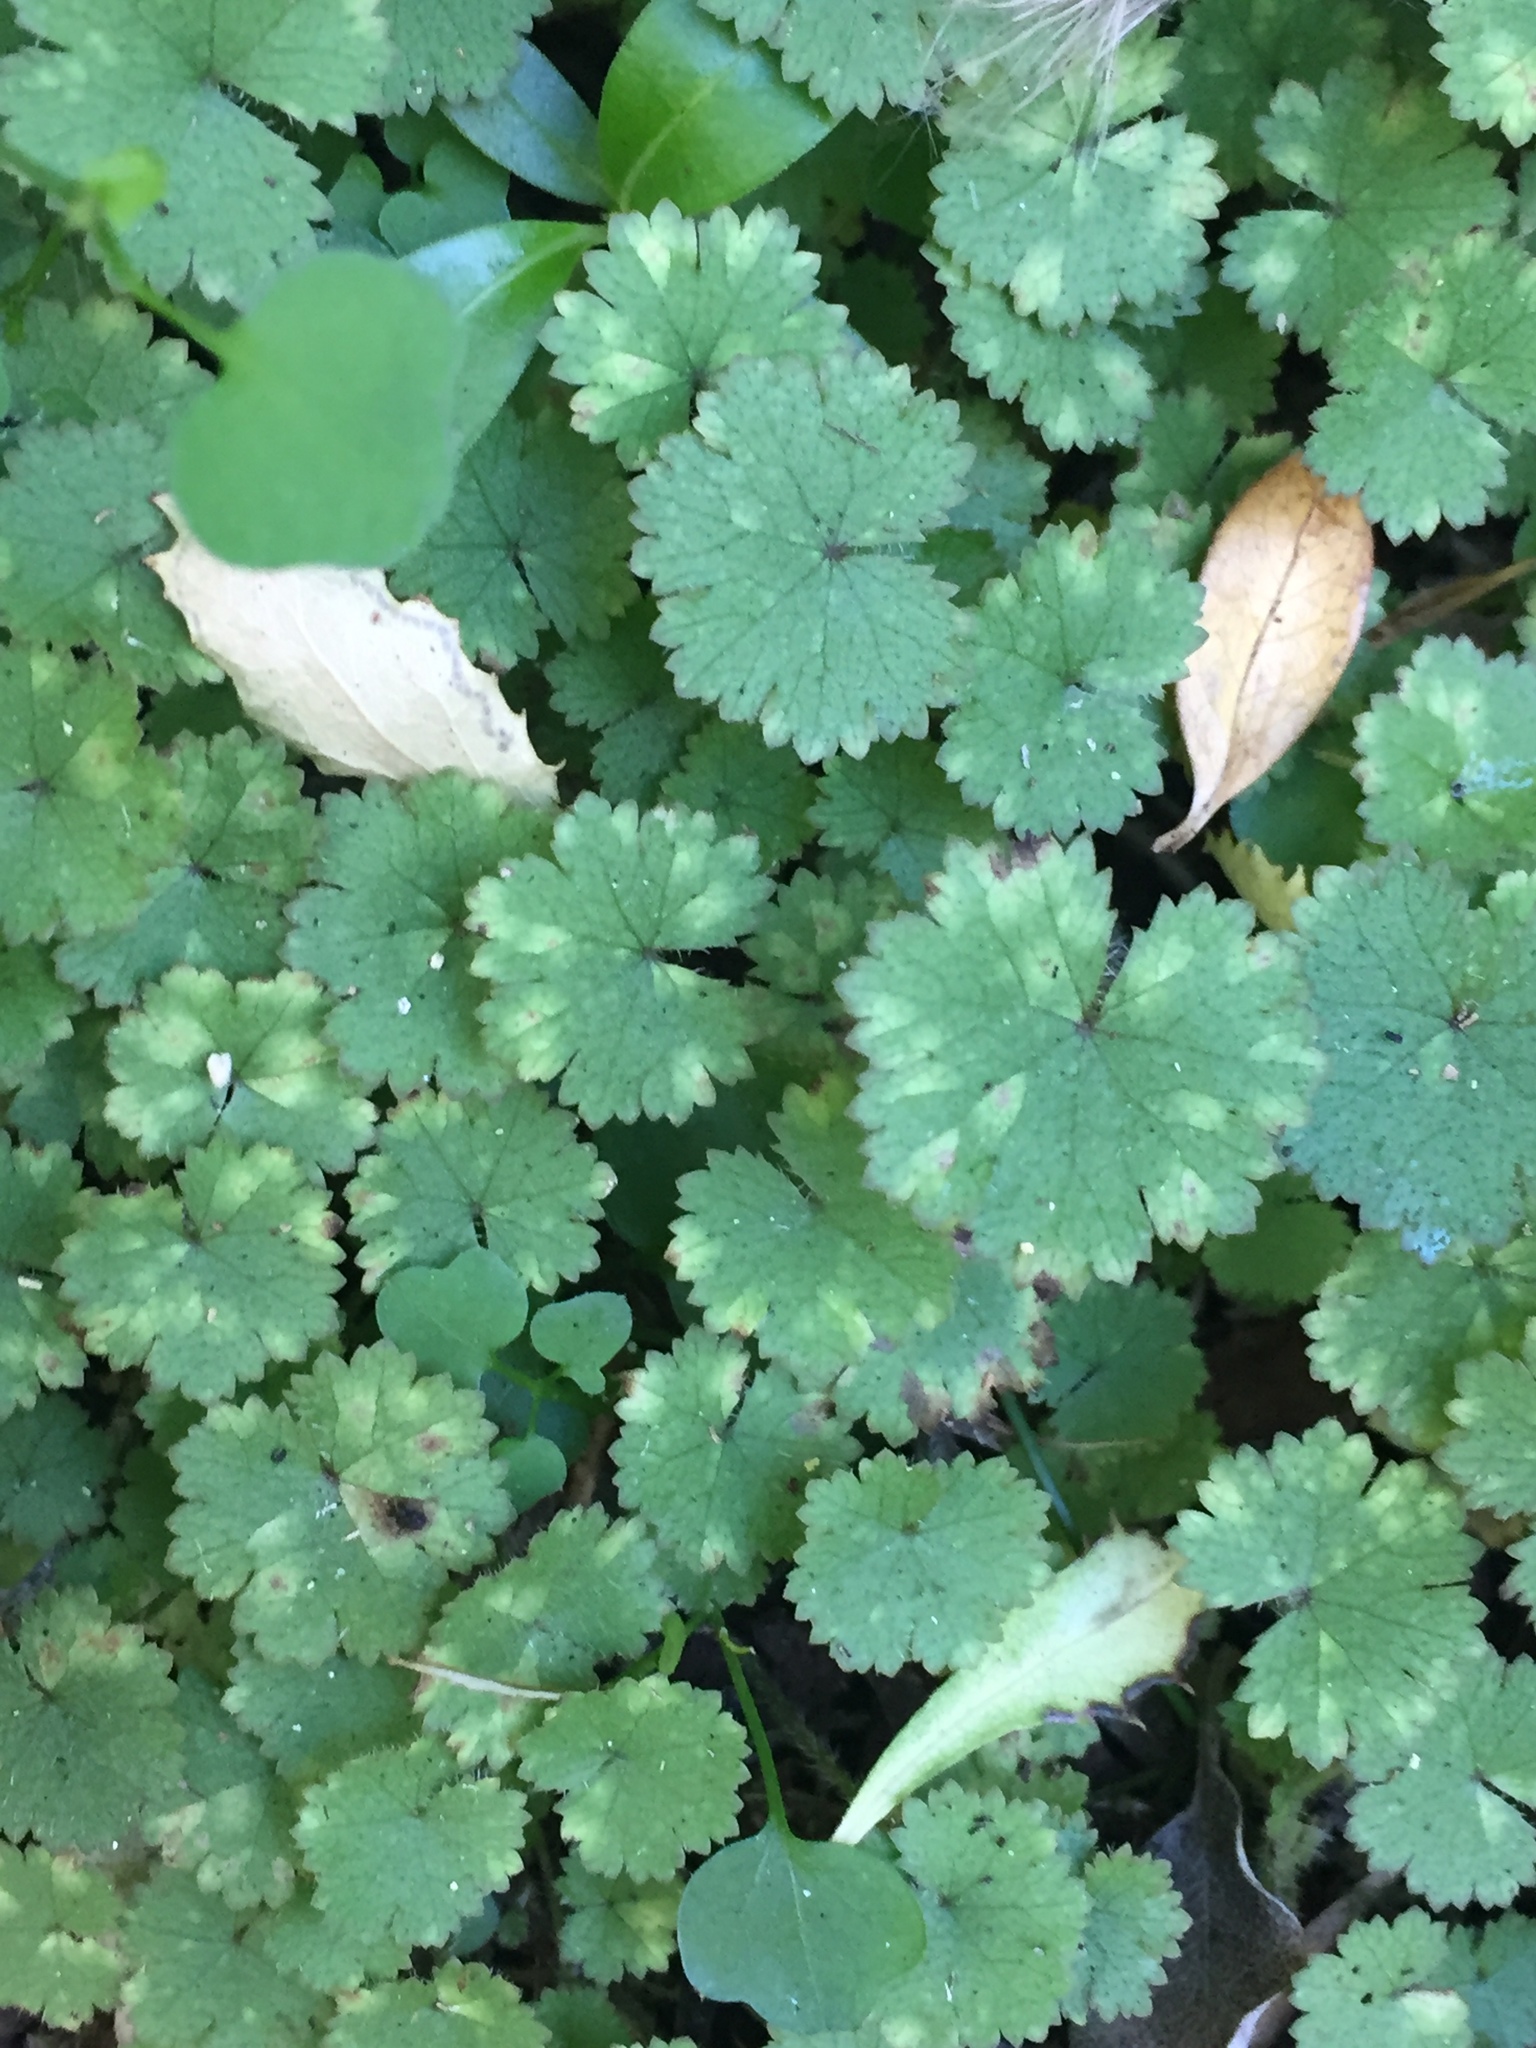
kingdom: Plantae
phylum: Tracheophyta
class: Magnoliopsida
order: Apiales
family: Araliaceae
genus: Hydrocotyle
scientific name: Hydrocotyle moschata
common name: Hairy pennywort
